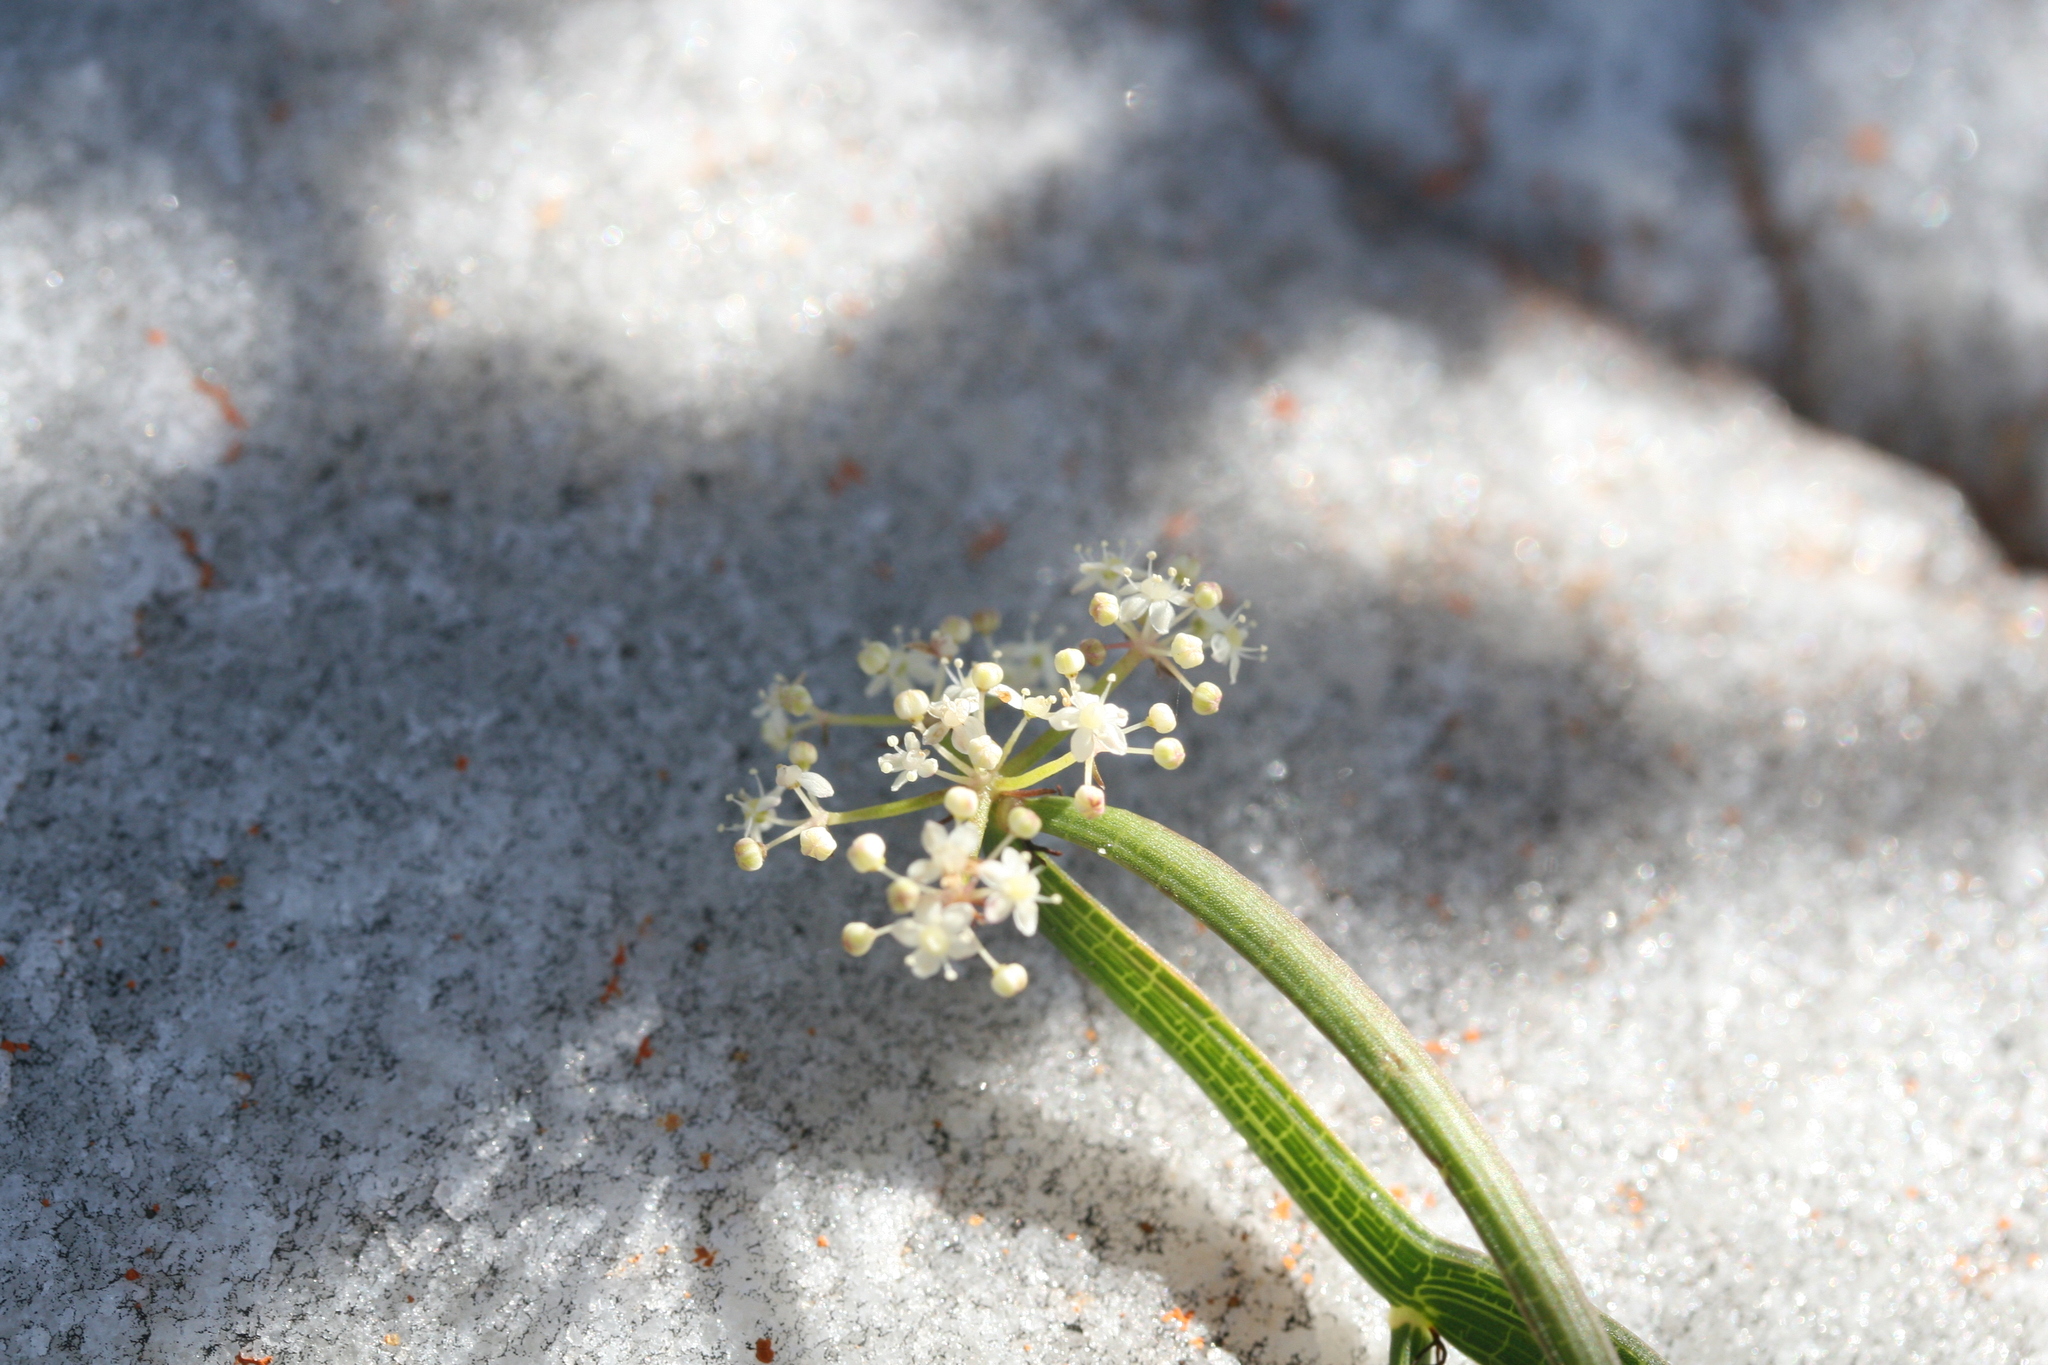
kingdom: Plantae
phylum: Tracheophyta
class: Magnoliopsida
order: Apiales
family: Apiaceae
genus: Platysace
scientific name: Platysace compressa
